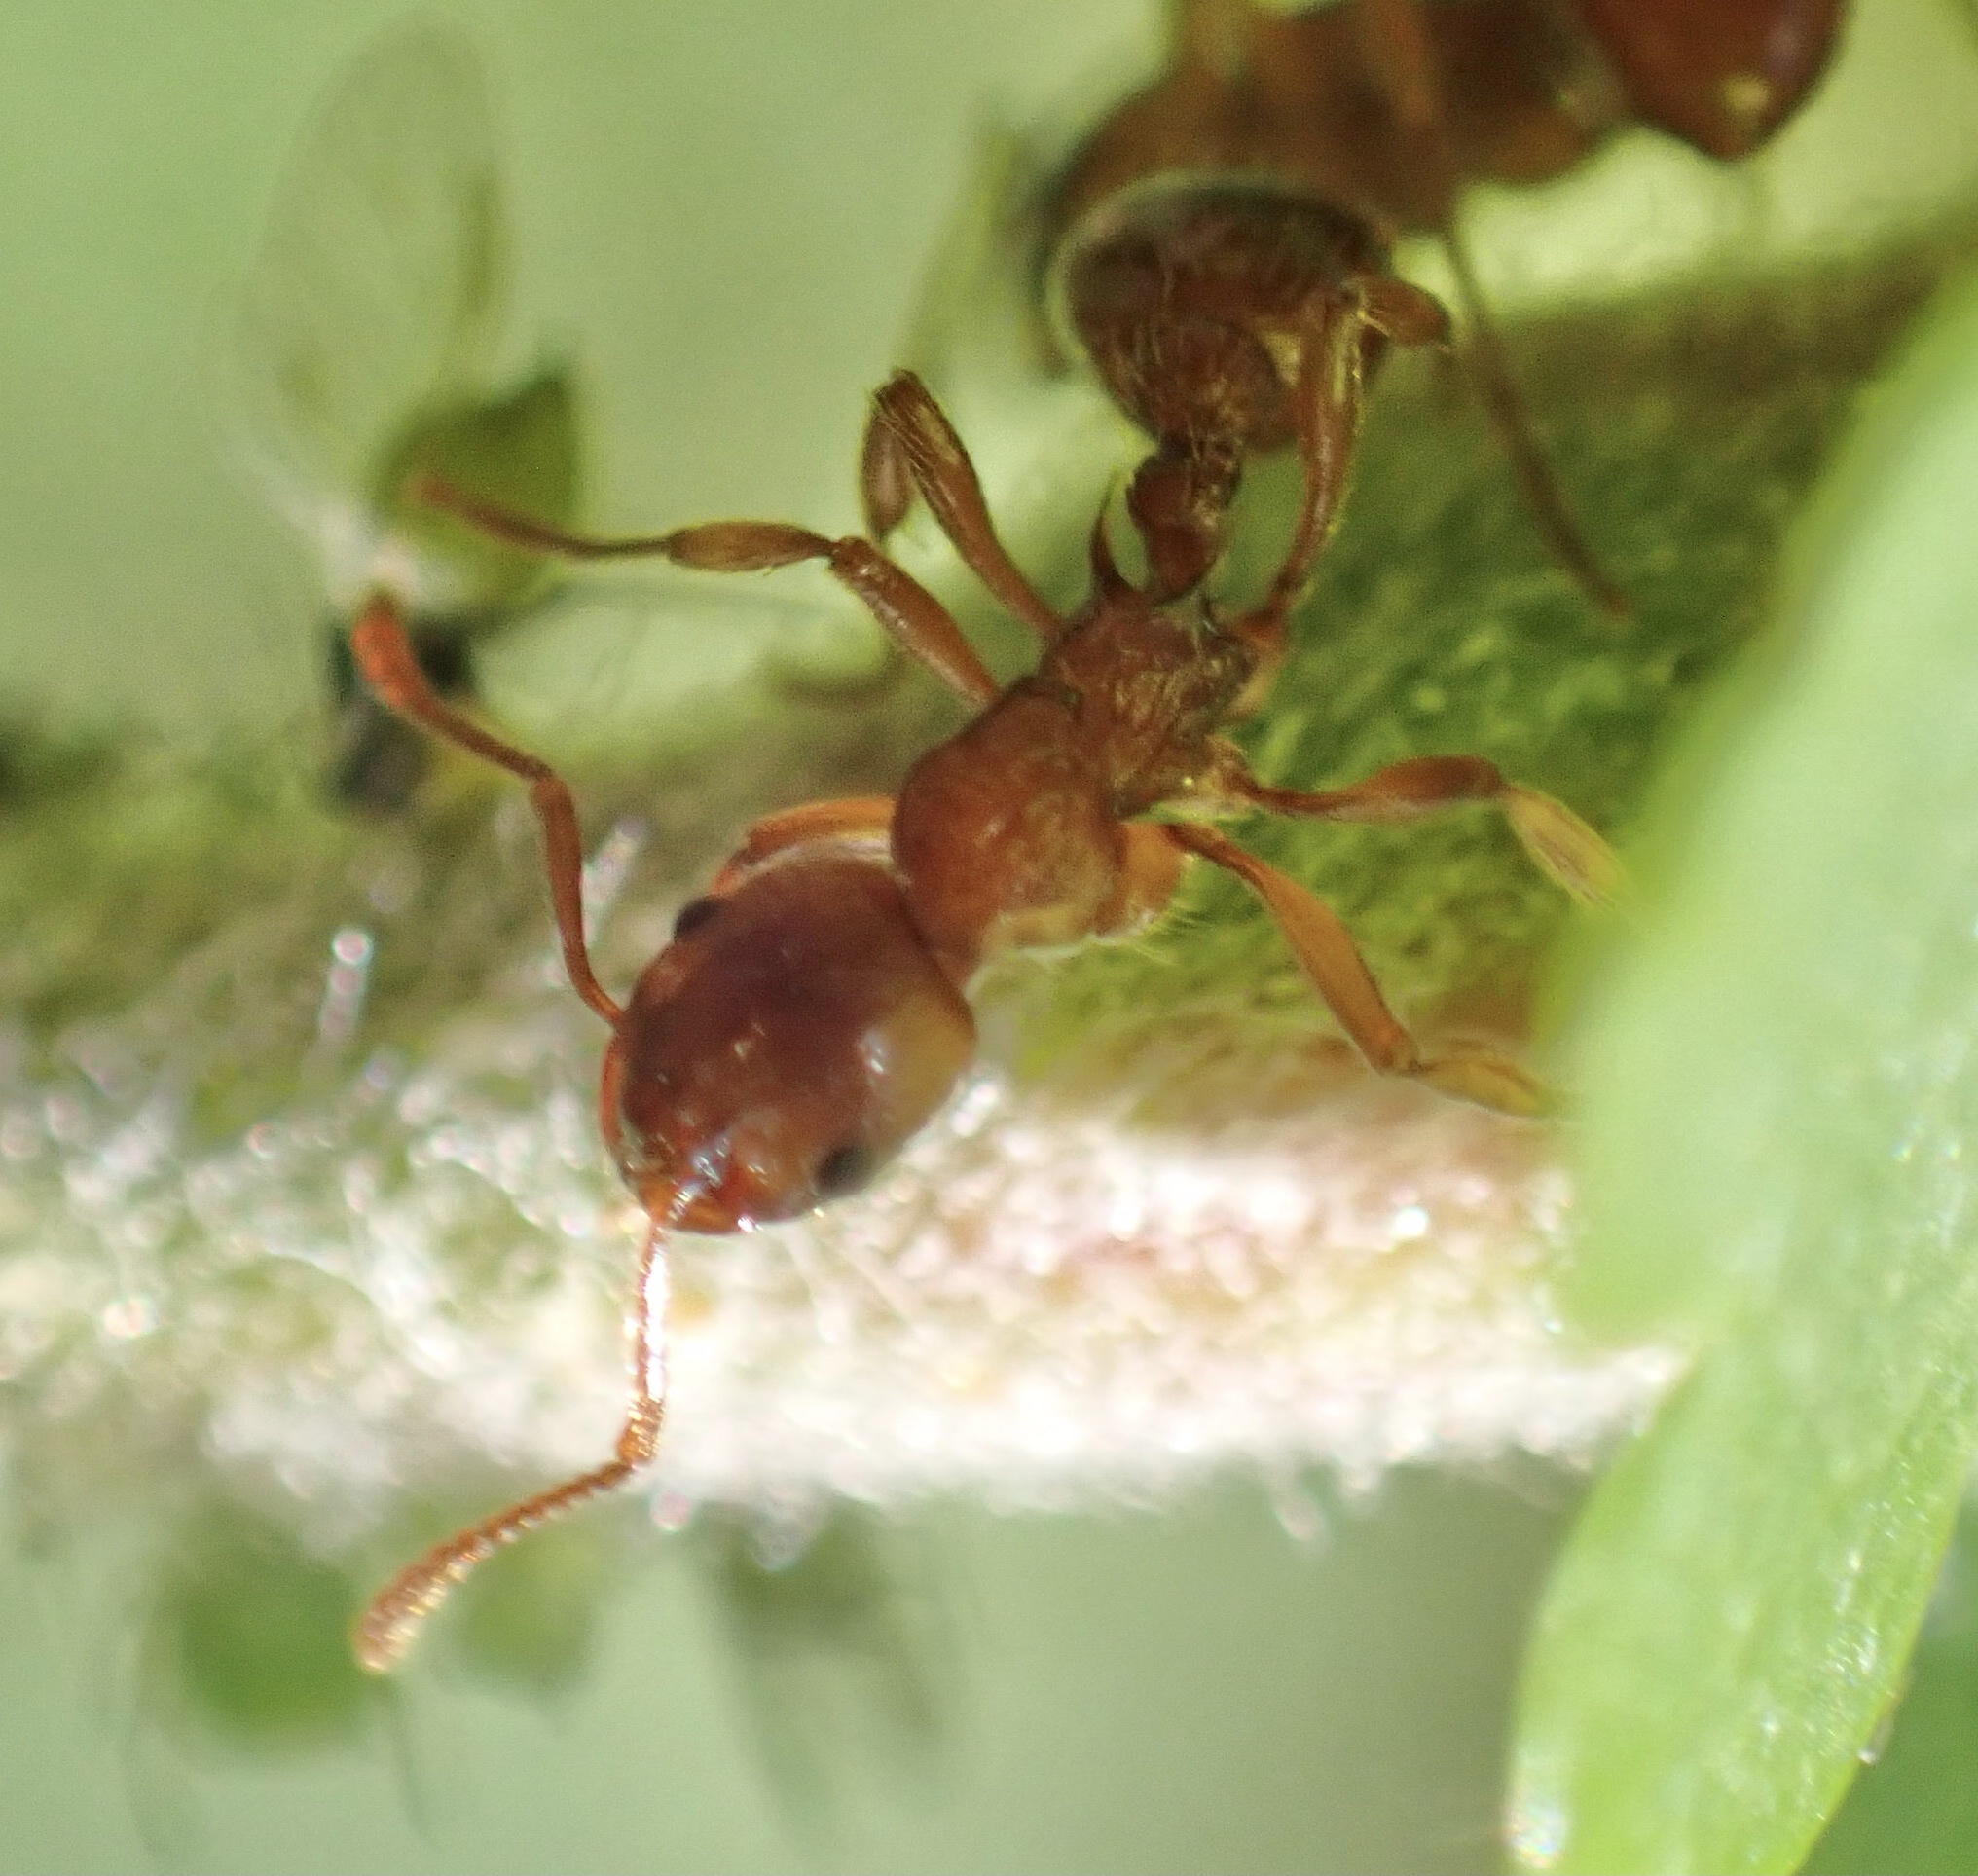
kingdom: Animalia
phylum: Arthropoda
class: Insecta
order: Hymenoptera
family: Formicidae
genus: Myrmica
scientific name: Myrmica ruginodis
